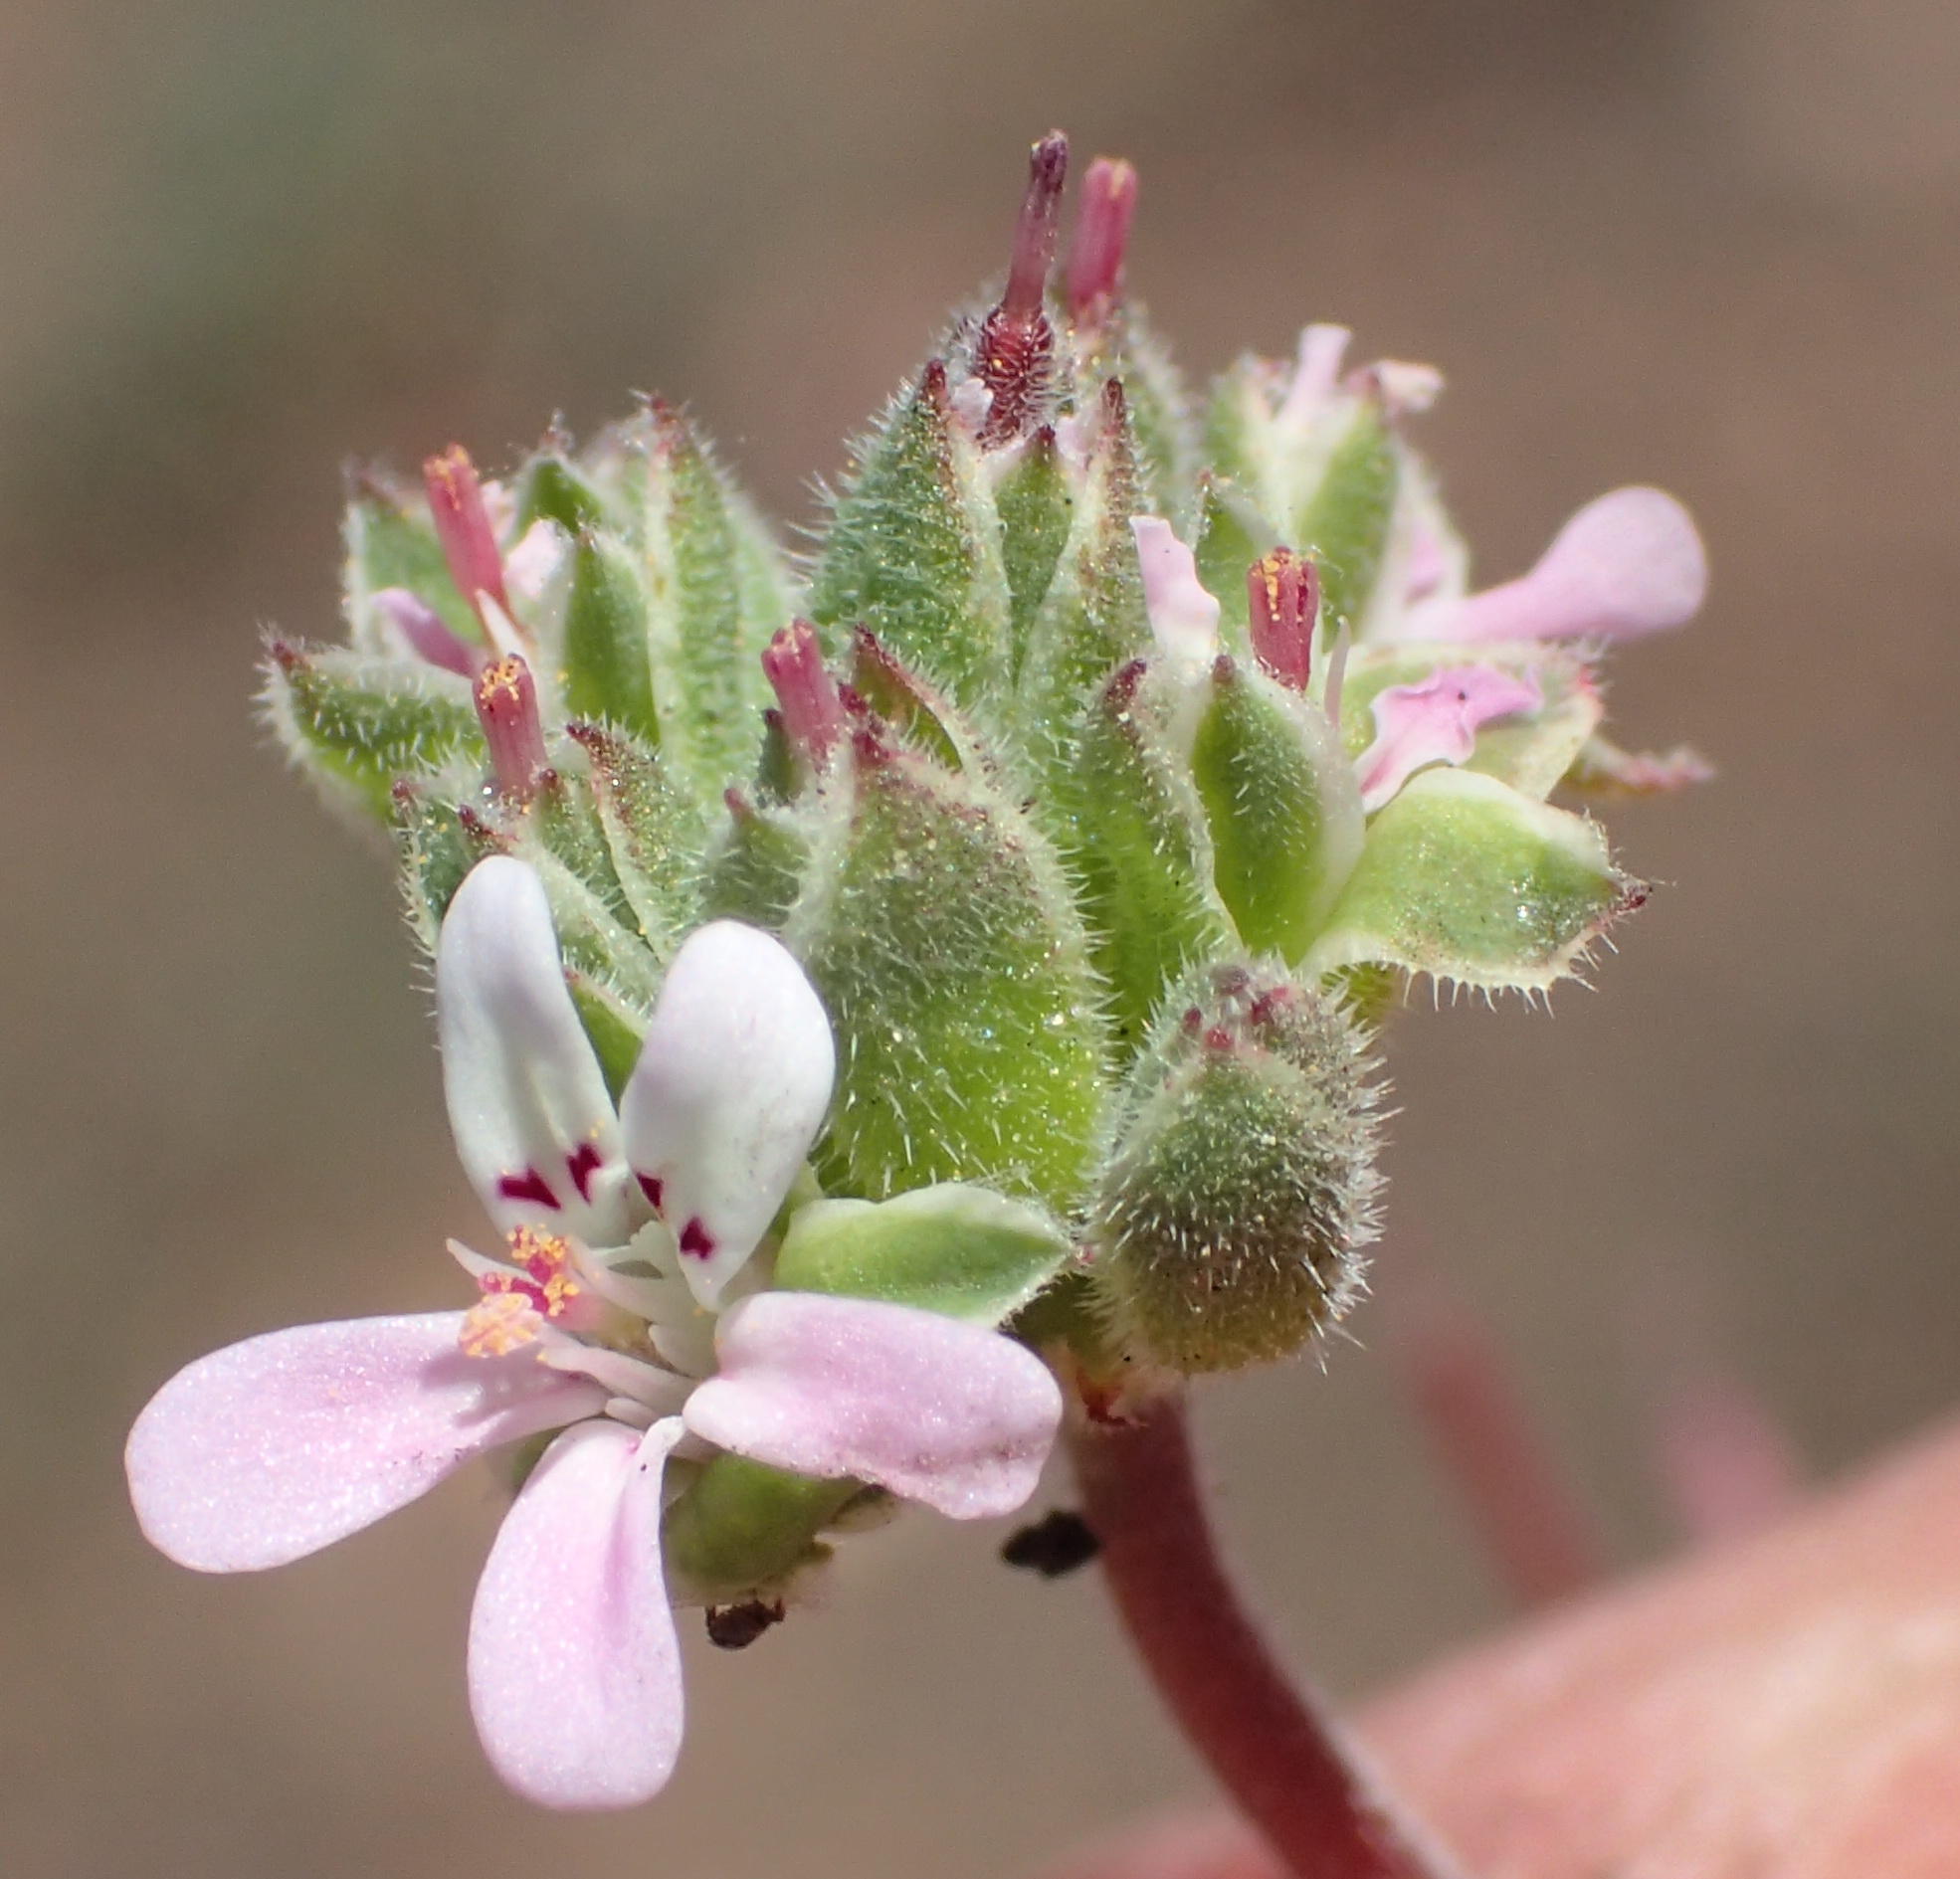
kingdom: Plantae
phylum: Tracheophyta
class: Magnoliopsida
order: Geraniales
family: Geraniaceae
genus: Pelargonium
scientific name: Pelargonium nanum
